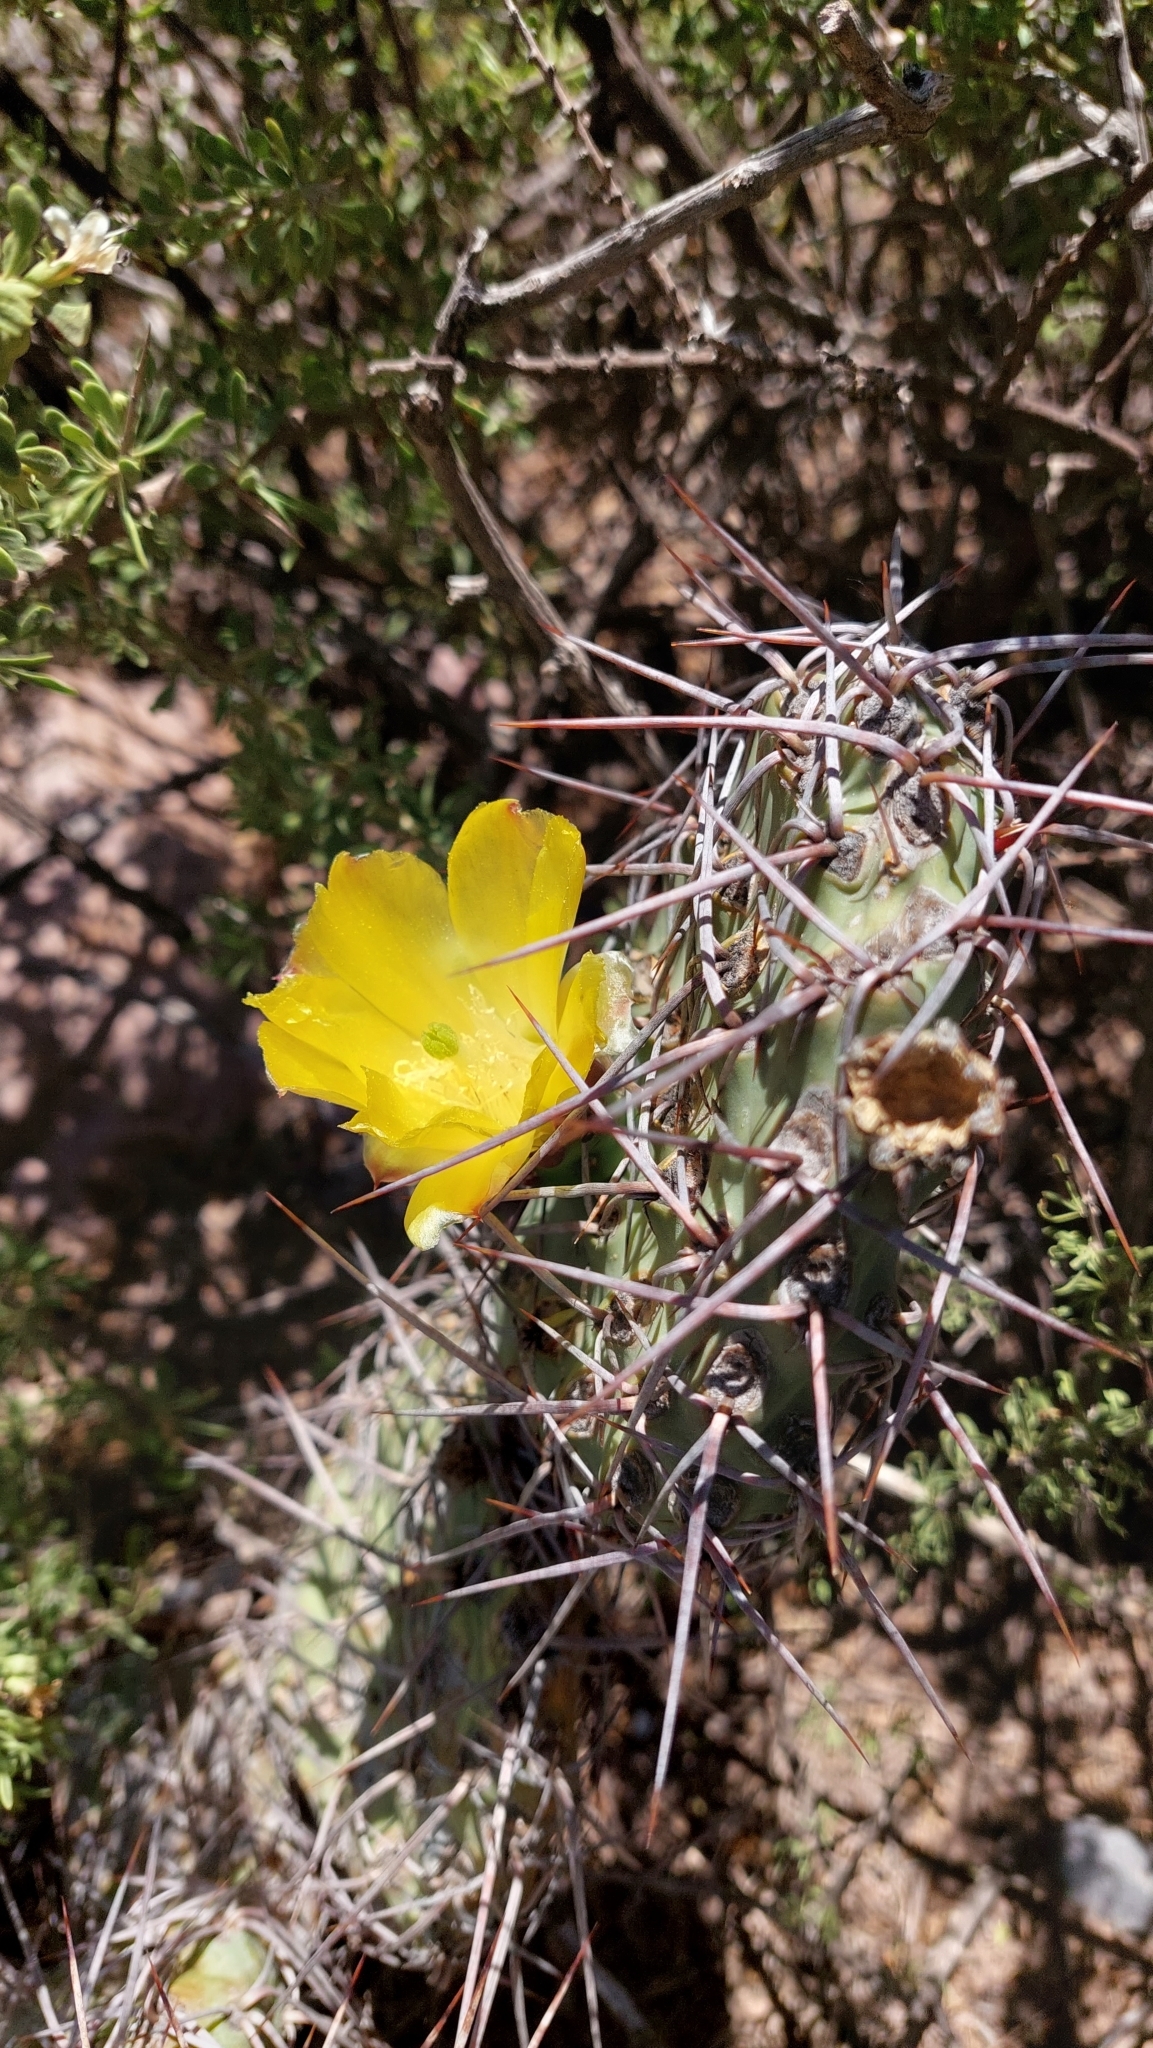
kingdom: Plantae
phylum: Tracheophyta
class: Magnoliopsida
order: Caryophyllales
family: Cactaceae
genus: Opuntia
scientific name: Opuntia sulphurea
